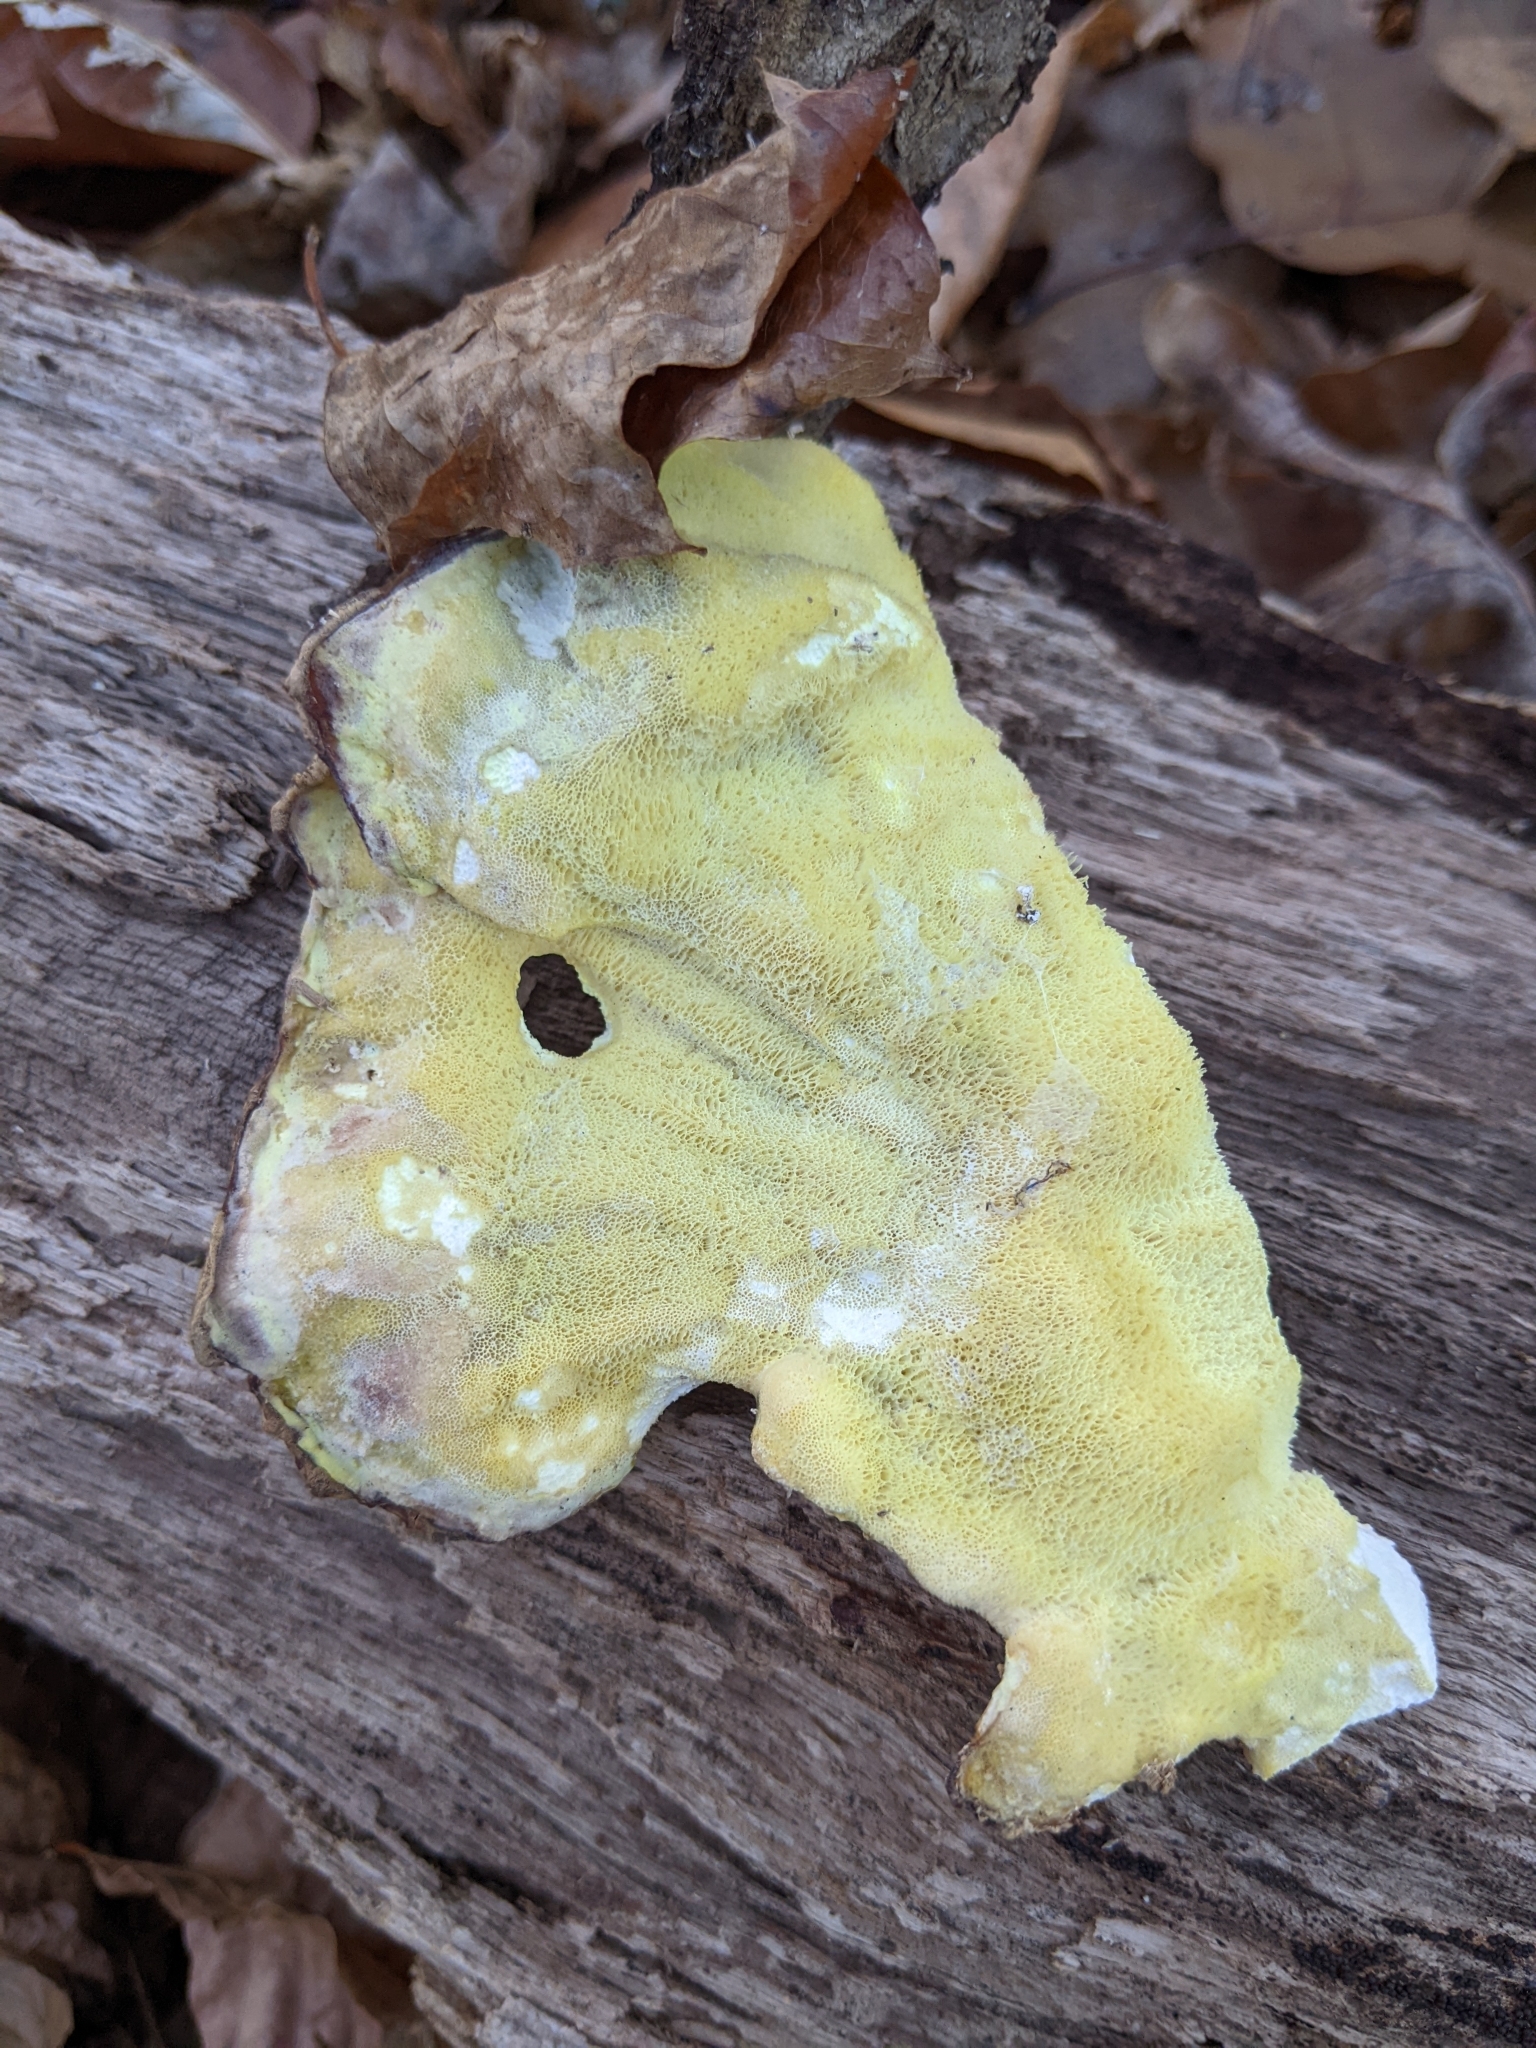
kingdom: Fungi
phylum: Basidiomycota
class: Agaricomycetes
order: Polyporales
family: Laetiporaceae
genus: Laetiporus
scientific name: Laetiporus sulphureus
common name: Chicken of the woods
